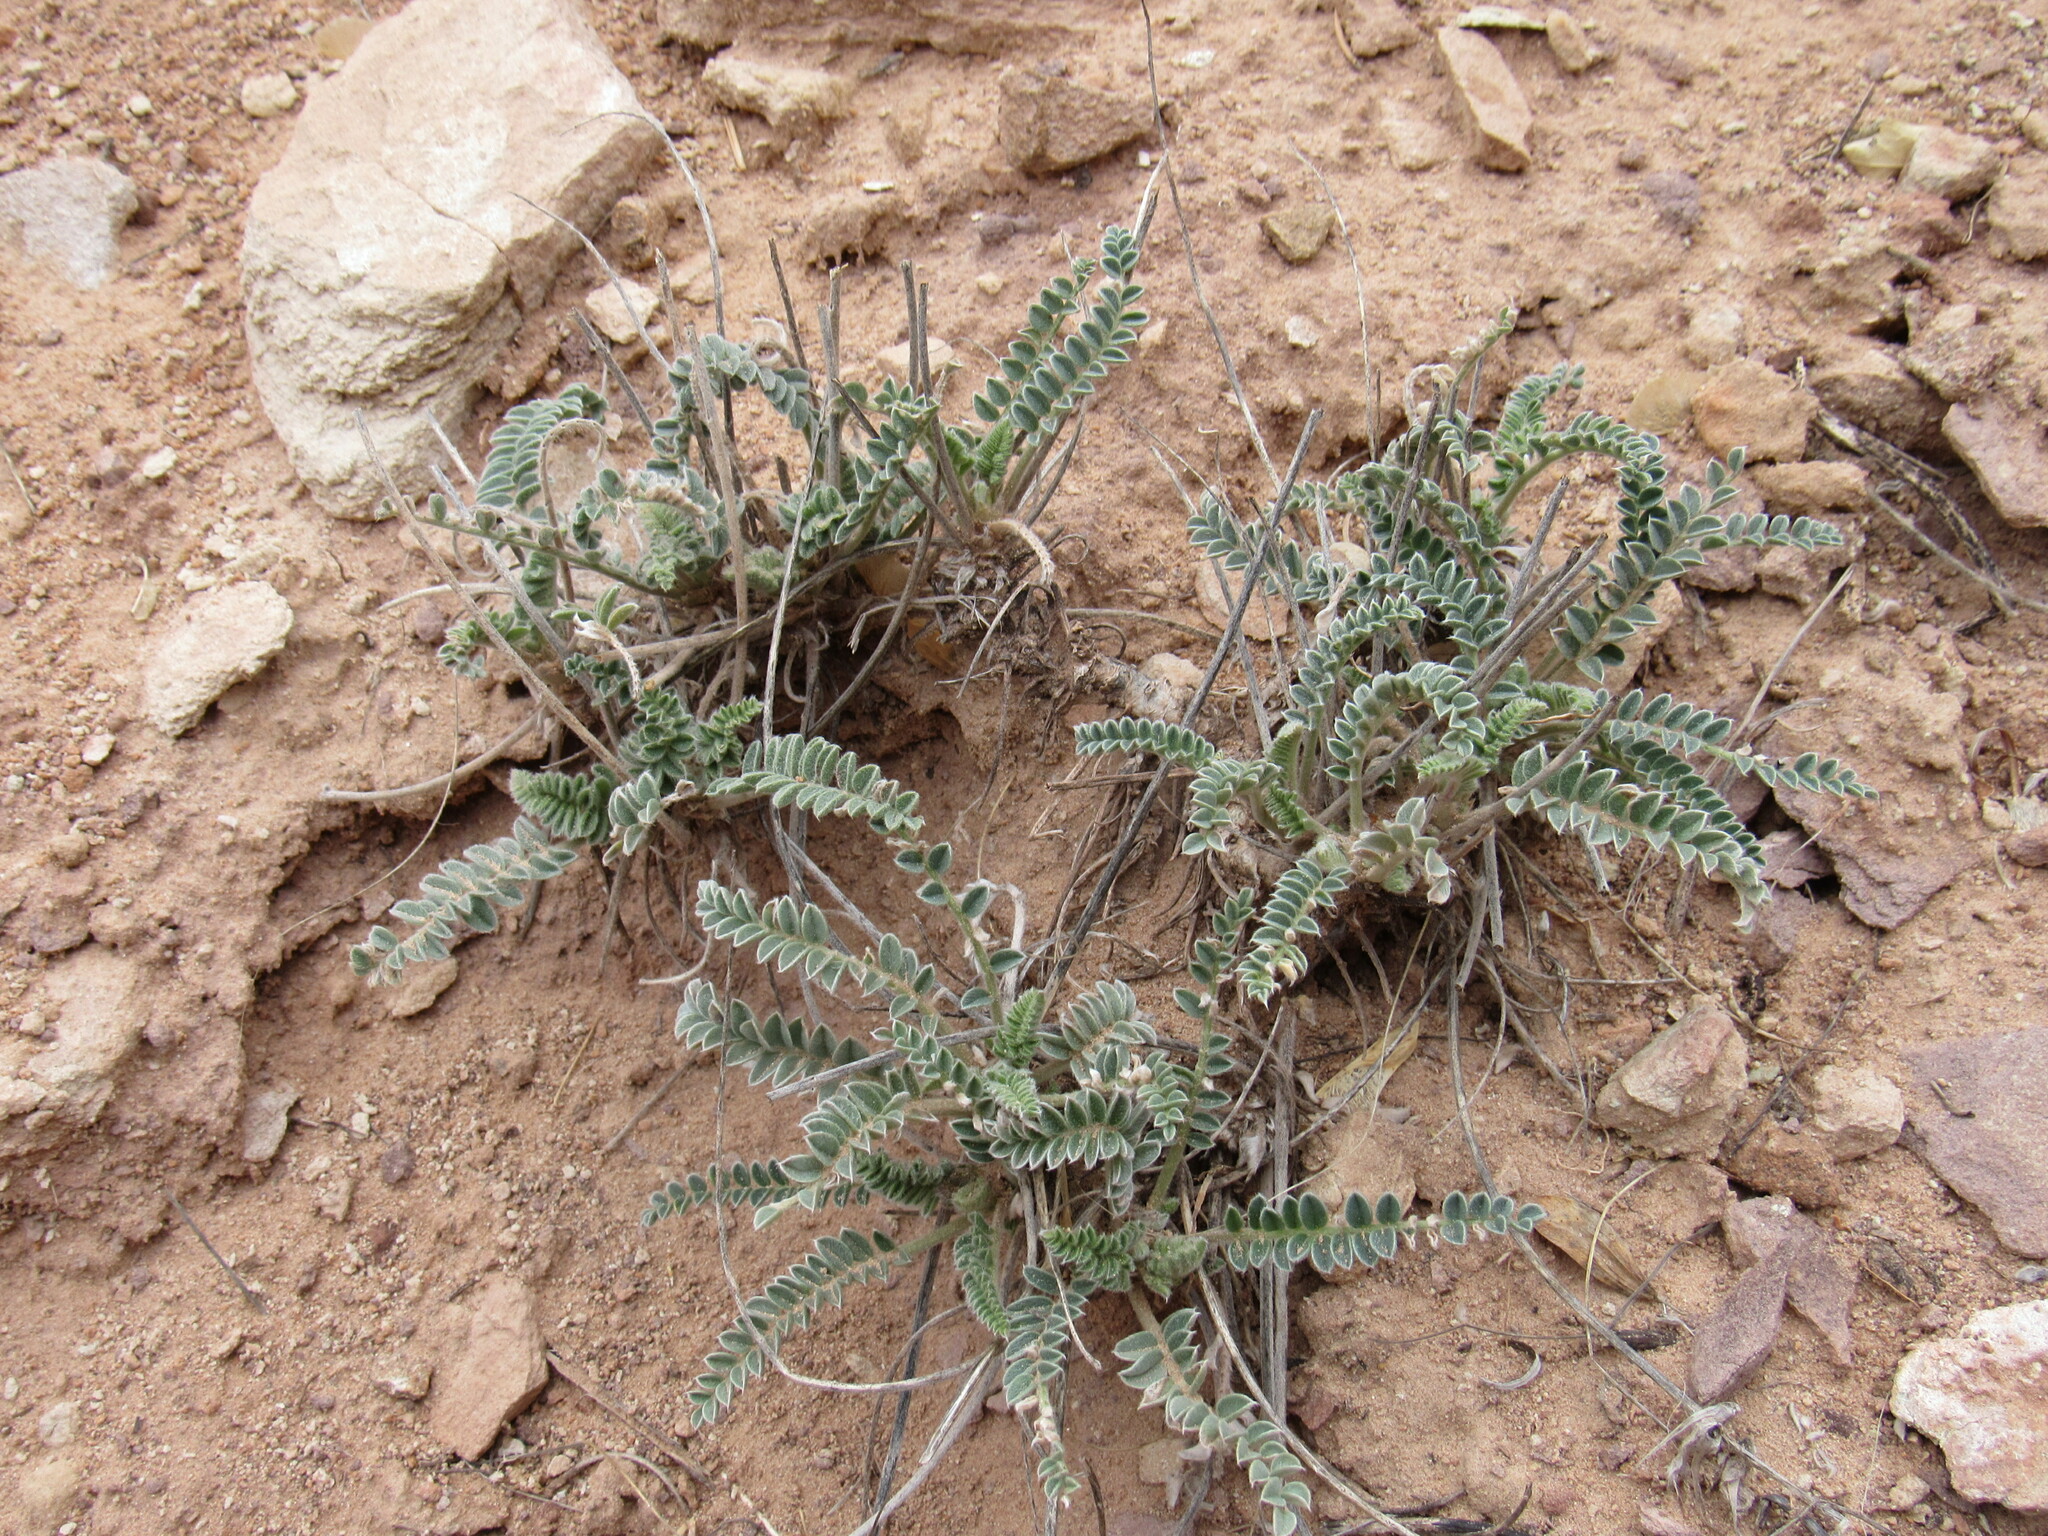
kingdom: Plantae
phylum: Tracheophyta
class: Magnoliopsida
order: Fabales
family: Fabaceae
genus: Astragalus
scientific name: Astragalus mollissimus
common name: Woolly locoweed
